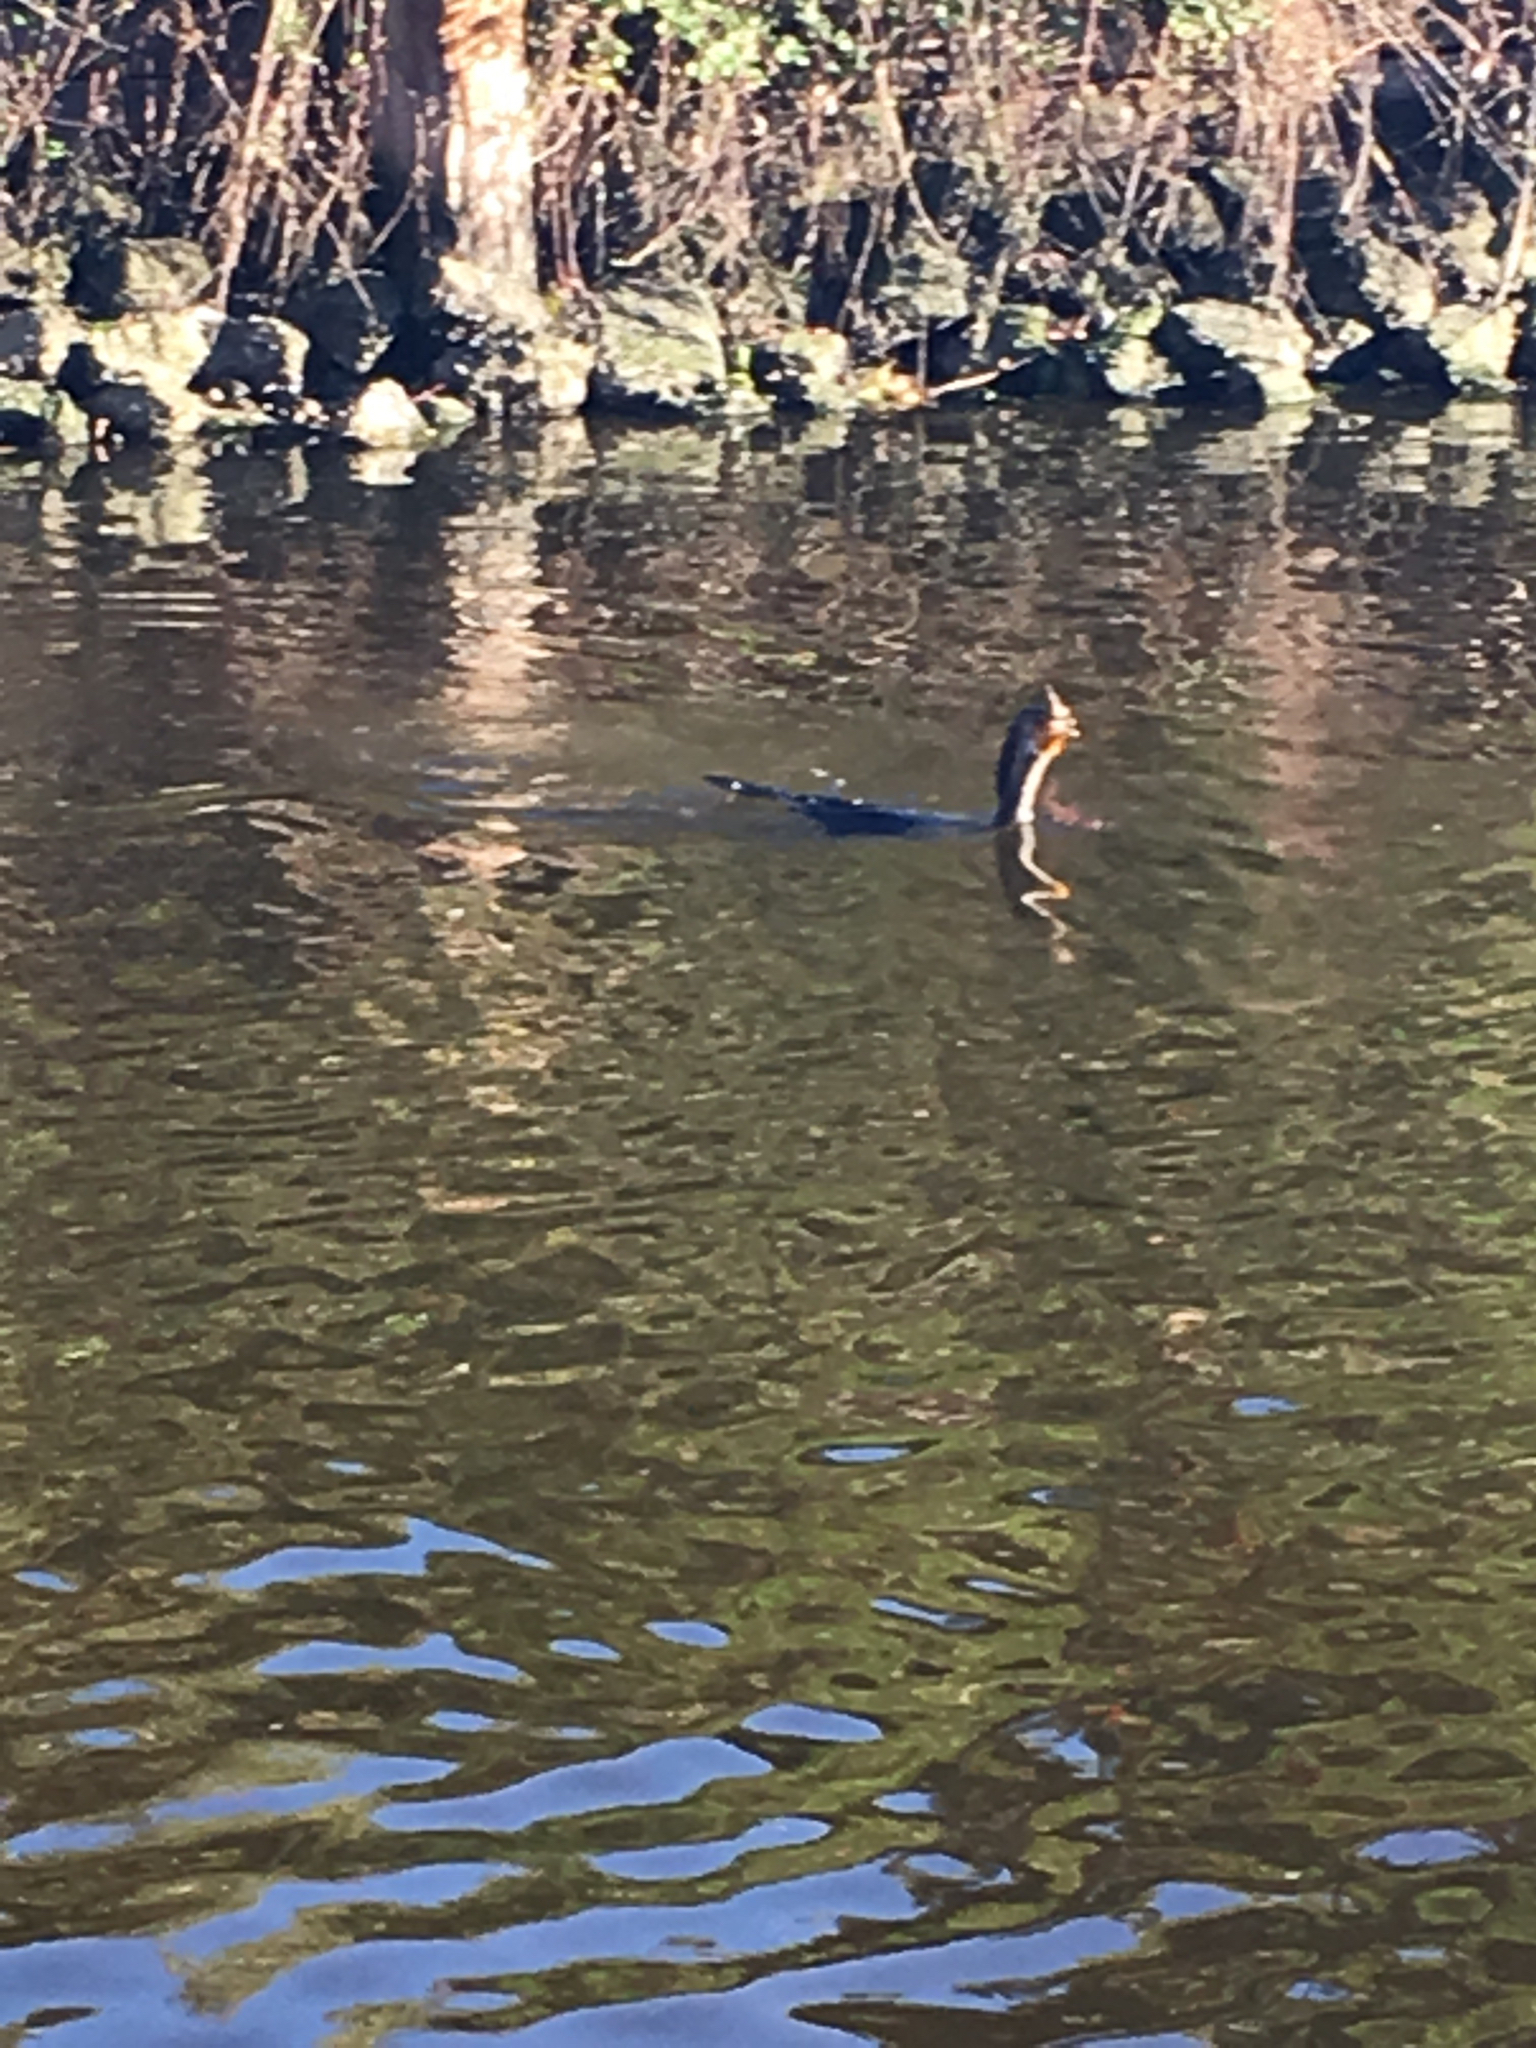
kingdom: Animalia
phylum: Chordata
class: Aves
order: Suliformes
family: Phalacrocoracidae
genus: Phalacrocorax
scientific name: Phalacrocorax auritus
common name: Double-crested cormorant
